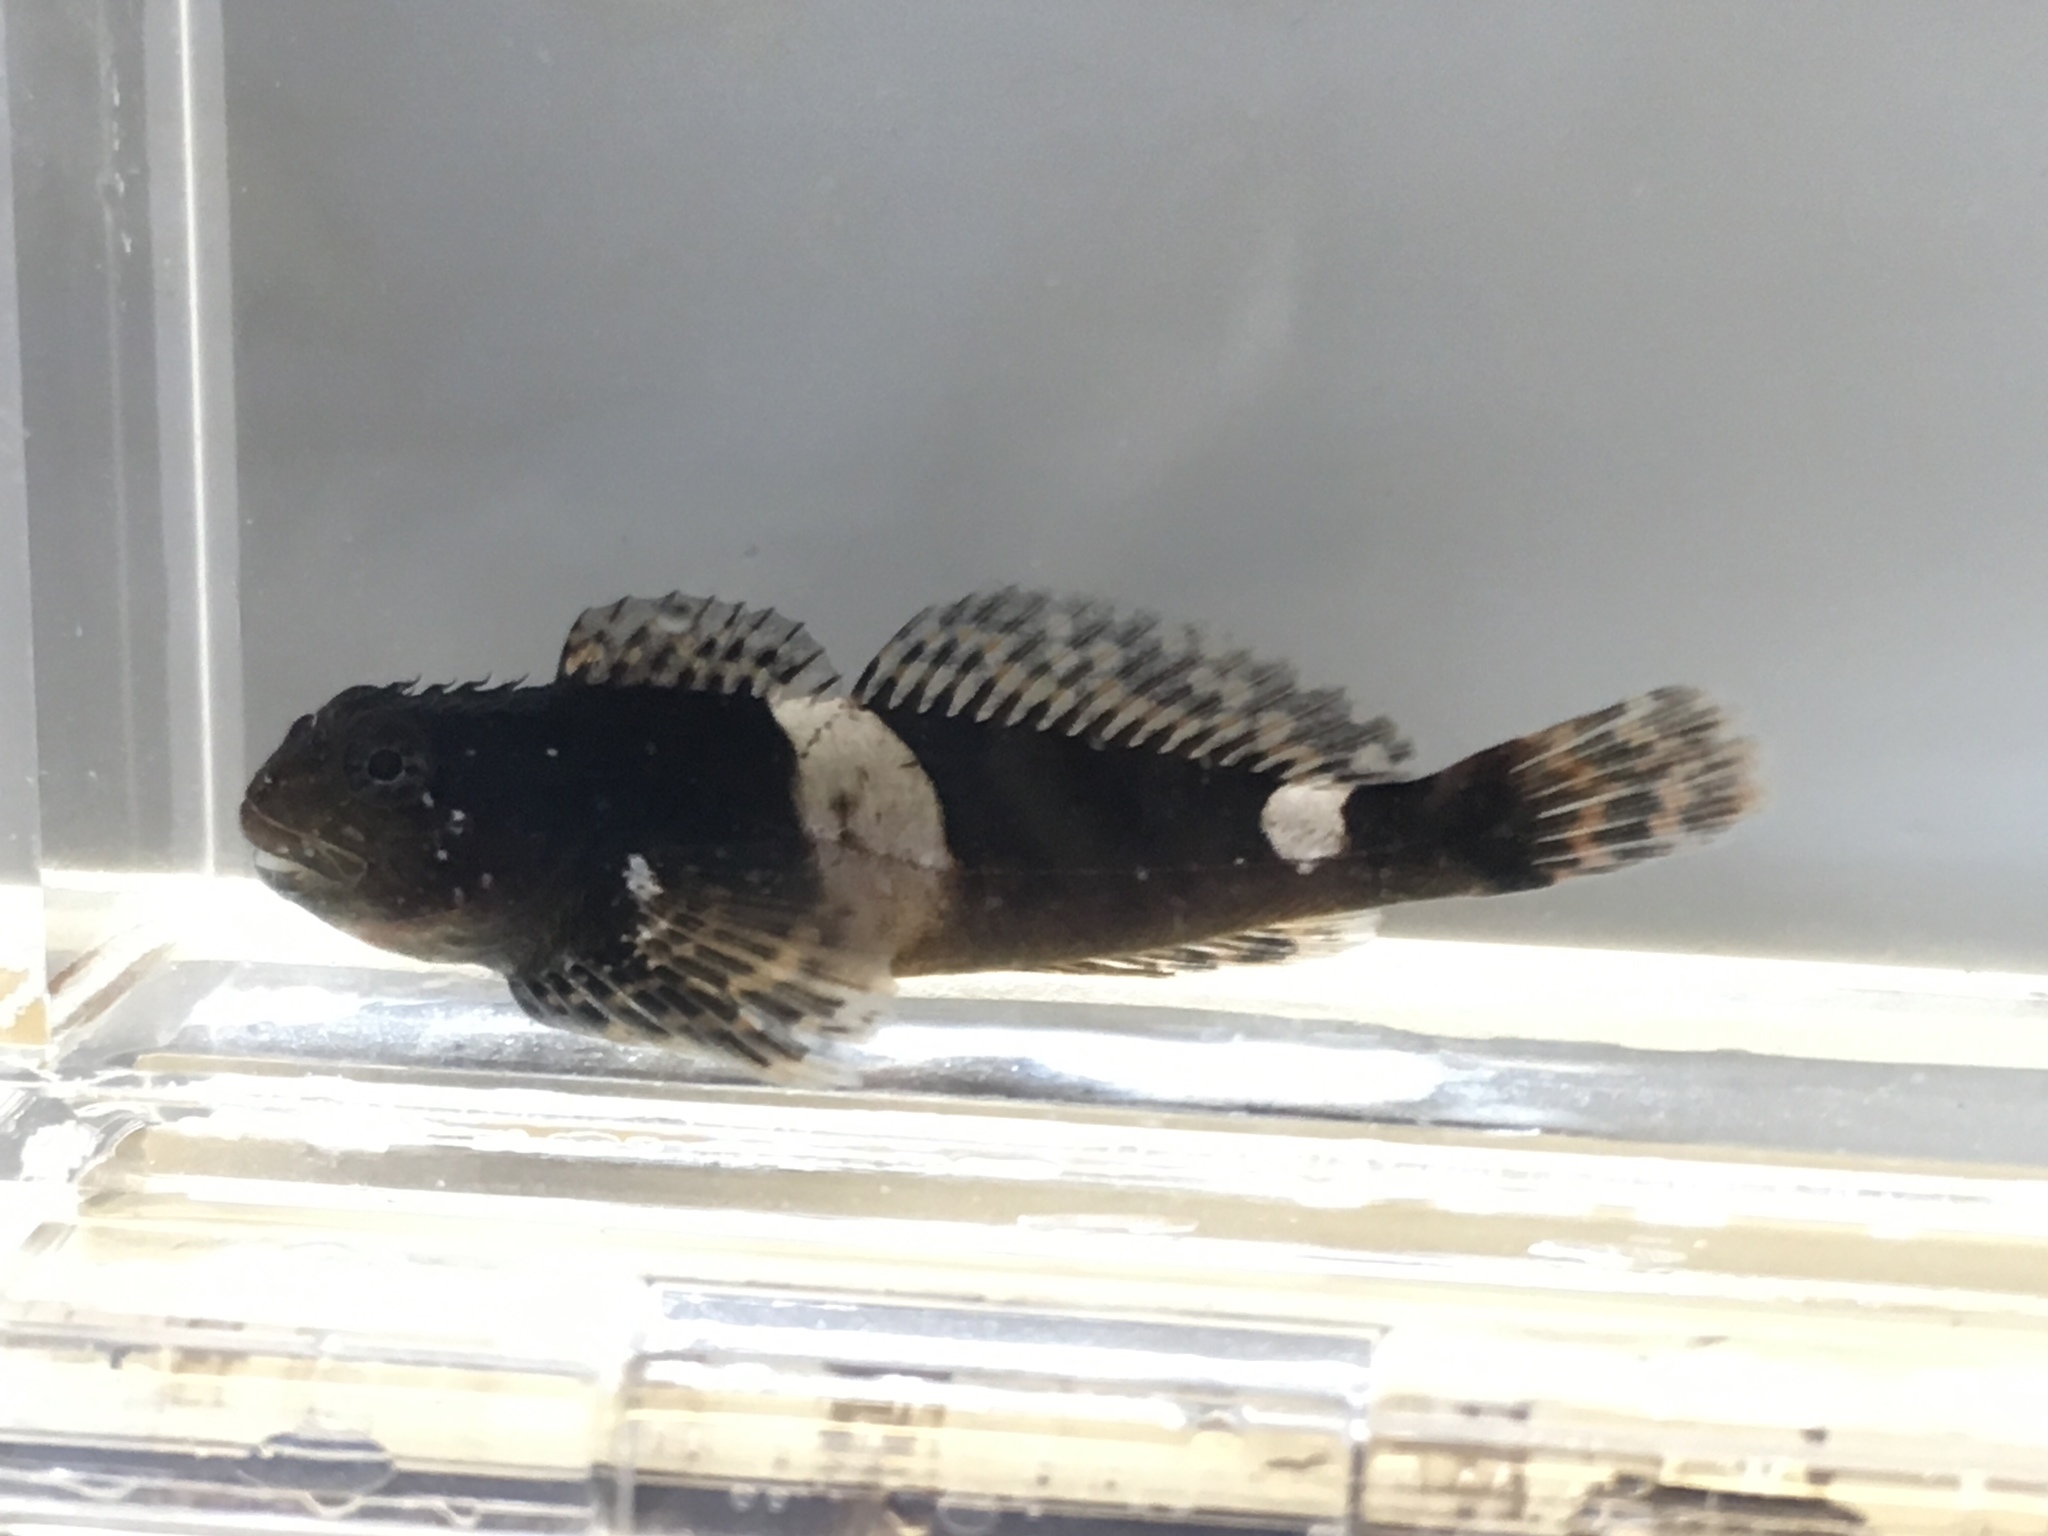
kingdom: Animalia
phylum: Chordata
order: Scorpaeniformes
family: Cottidae
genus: Clinocottus
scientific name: Clinocottus globiceps
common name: Mosshead sculpin
